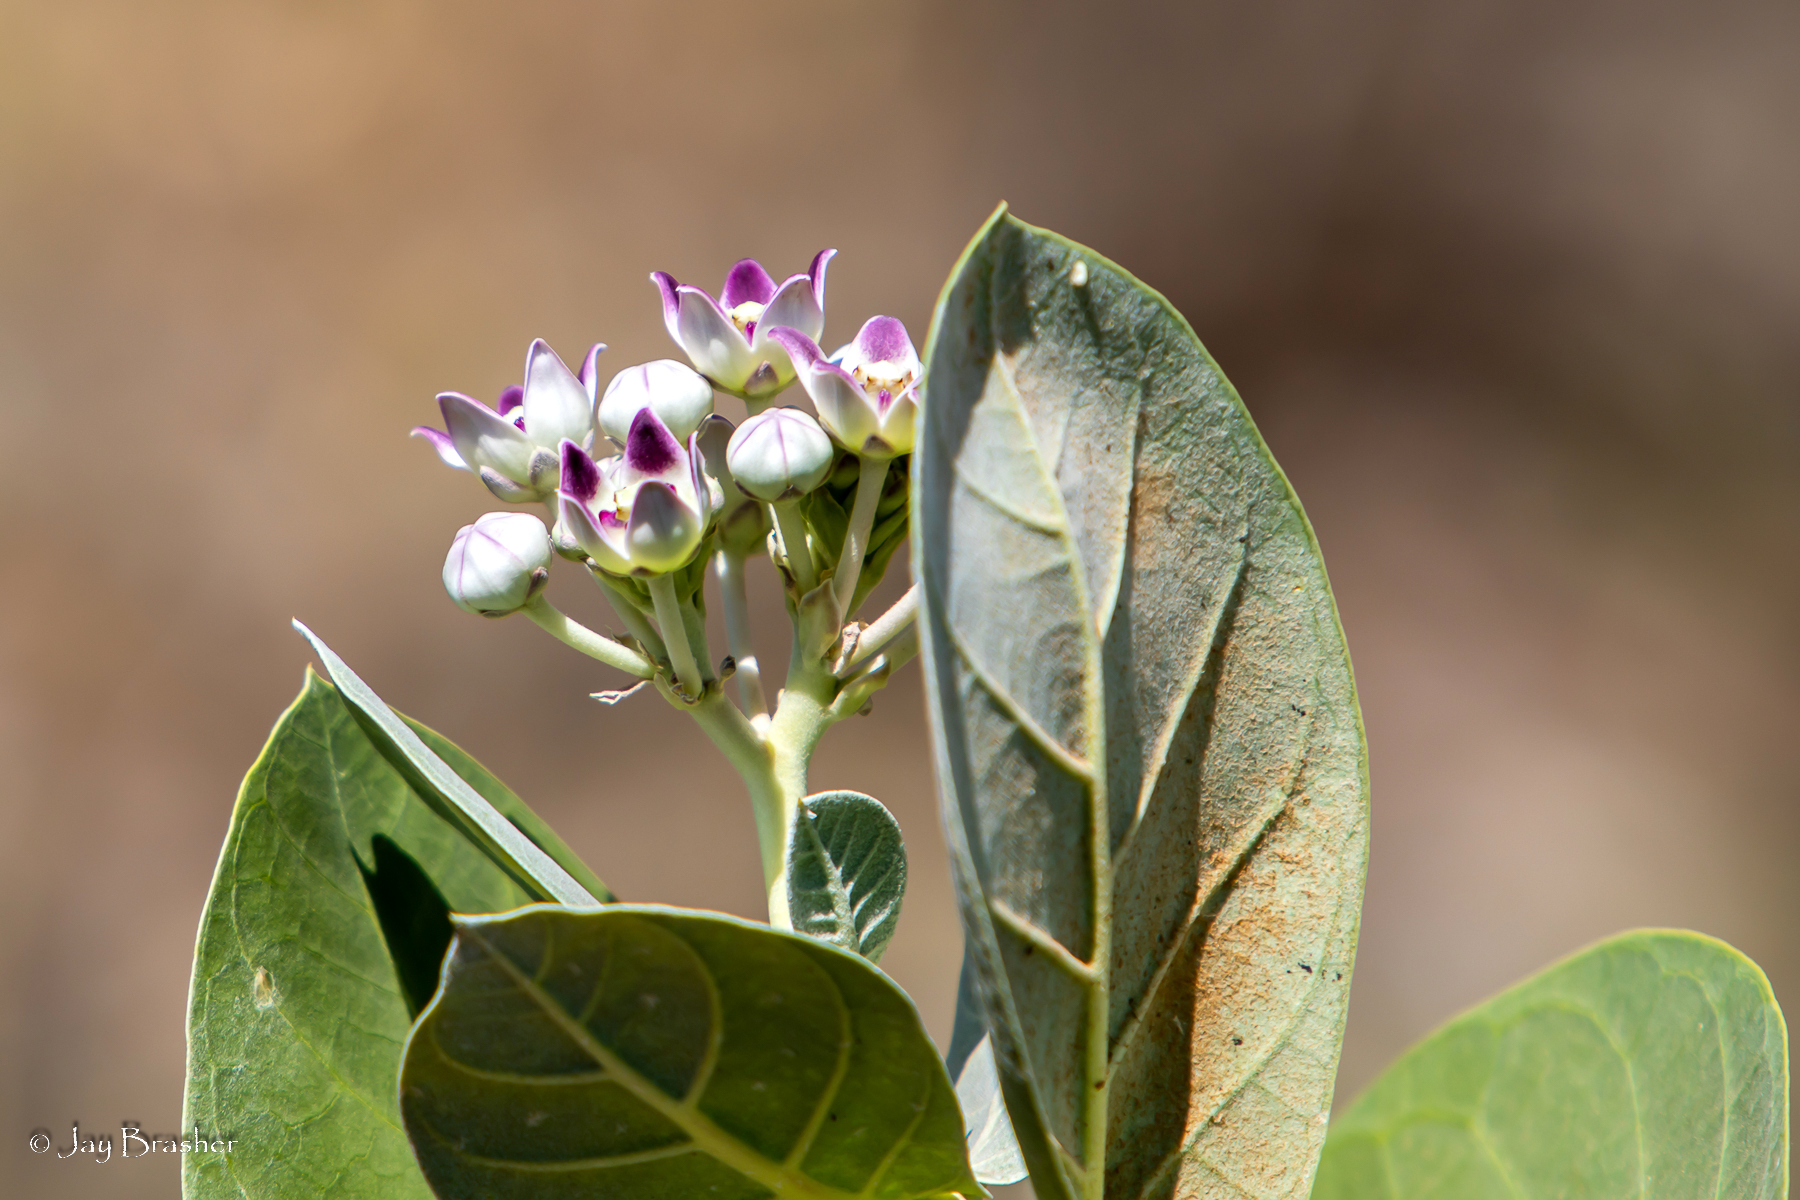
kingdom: Plantae
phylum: Tracheophyta
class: Magnoliopsida
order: Gentianales
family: Apocynaceae
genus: Calotropis
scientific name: Calotropis procera
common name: Roostertree
